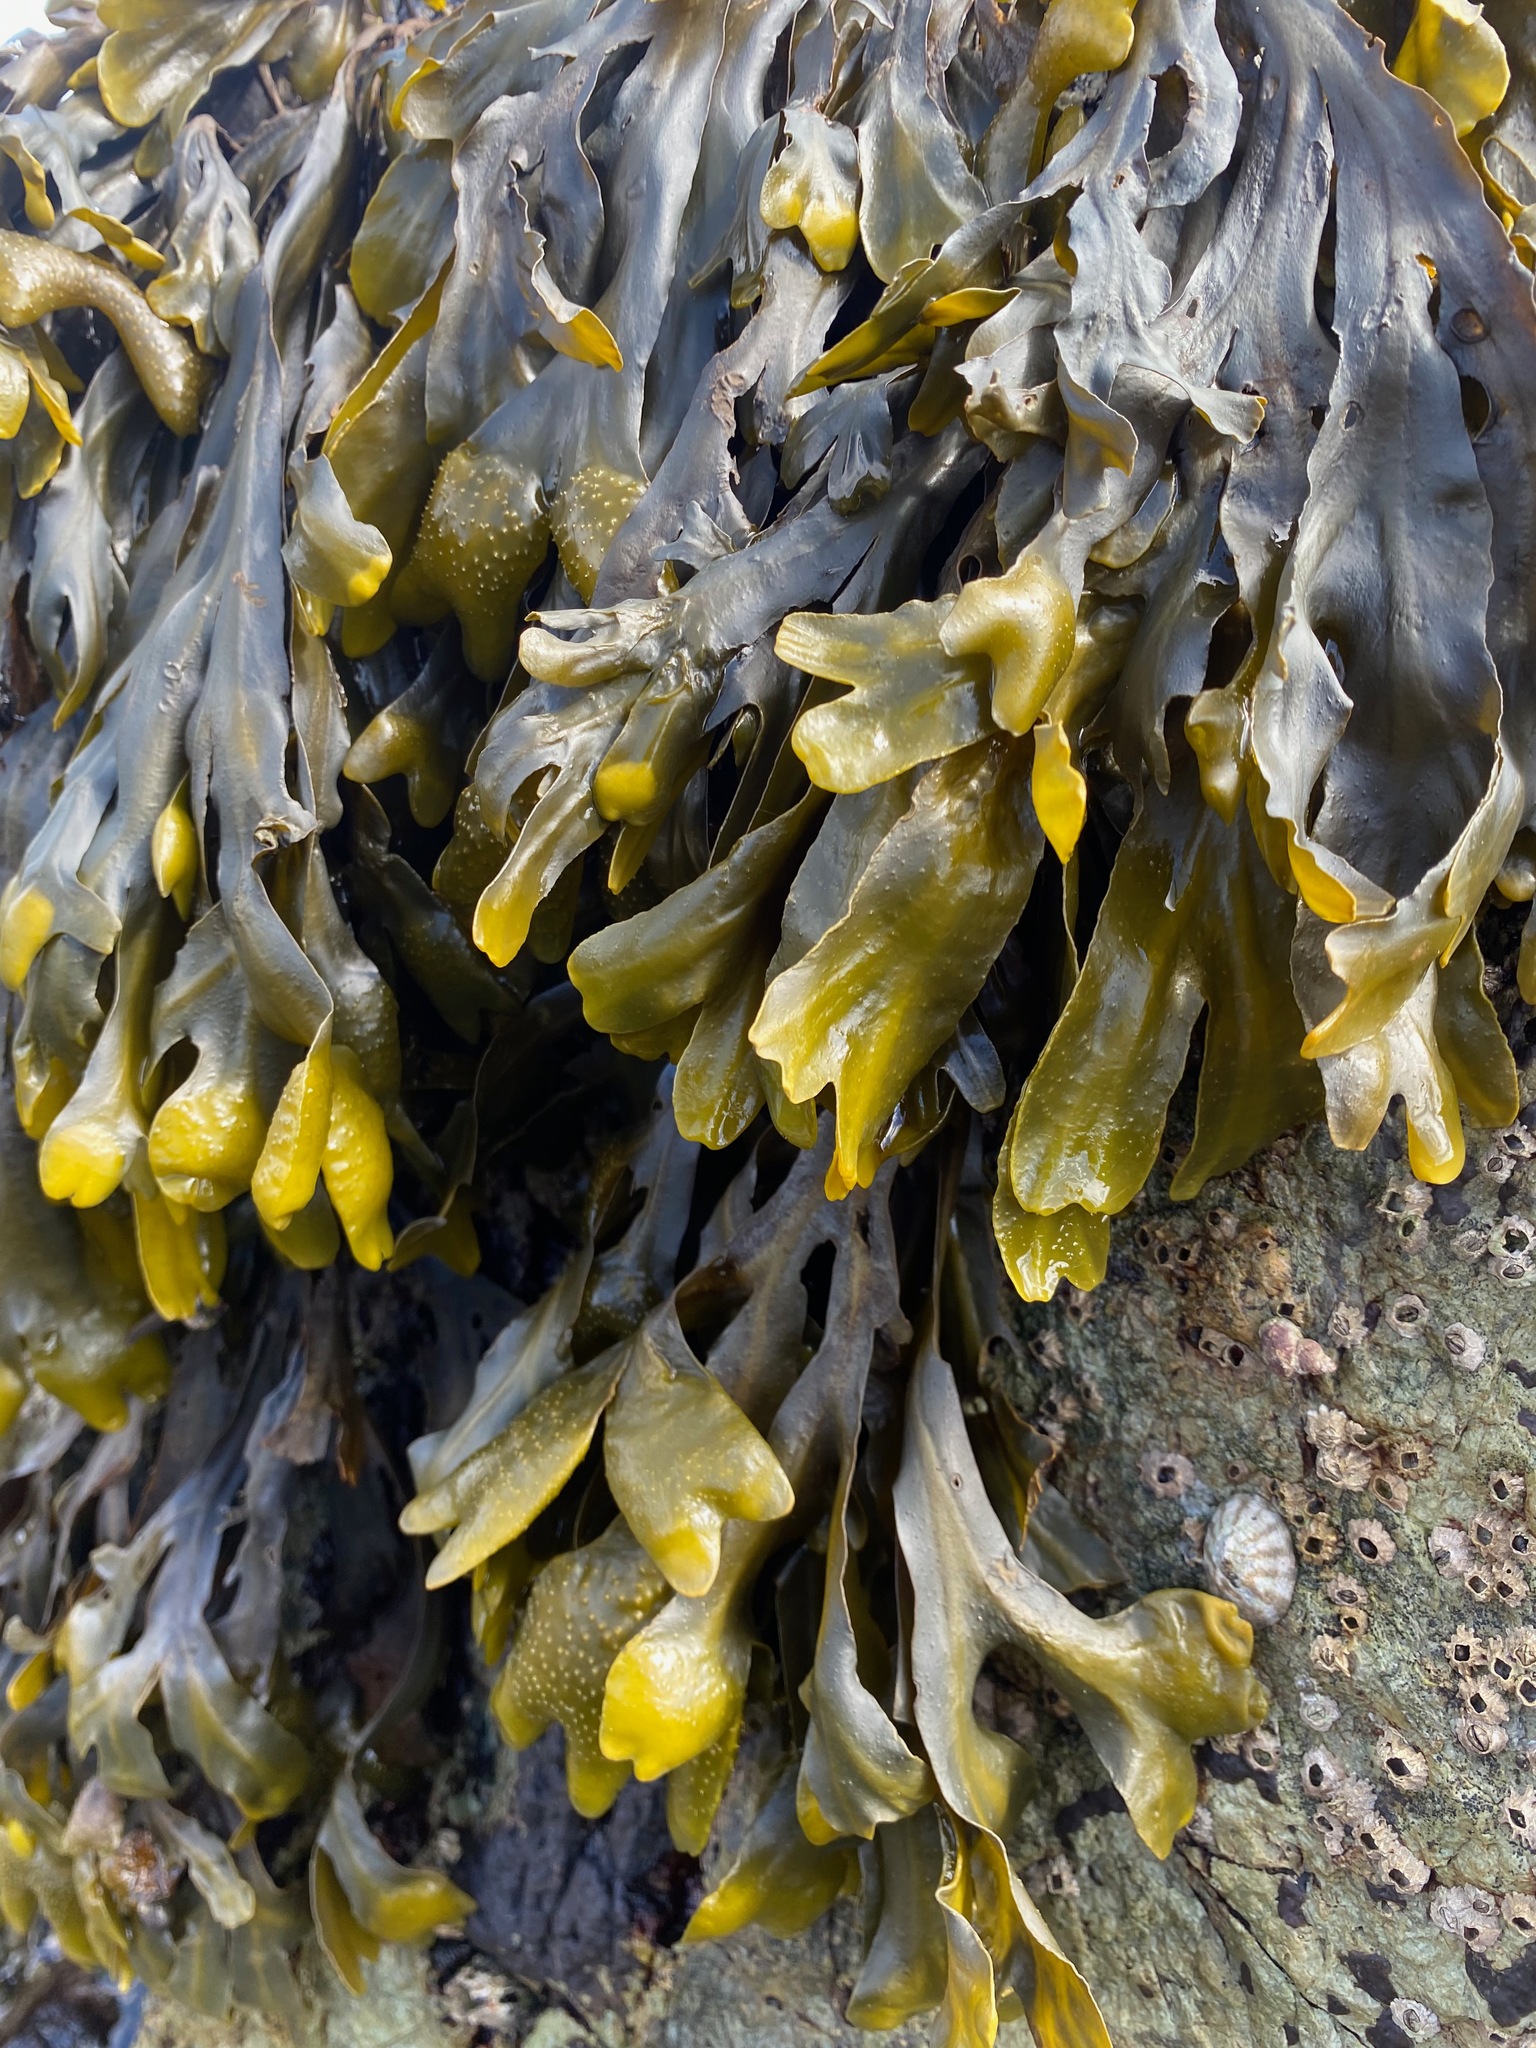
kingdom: Chromista
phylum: Ochrophyta
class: Phaeophyceae
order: Fucales
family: Fucaceae
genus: Fucus
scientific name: Fucus distichus
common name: Rockweed
